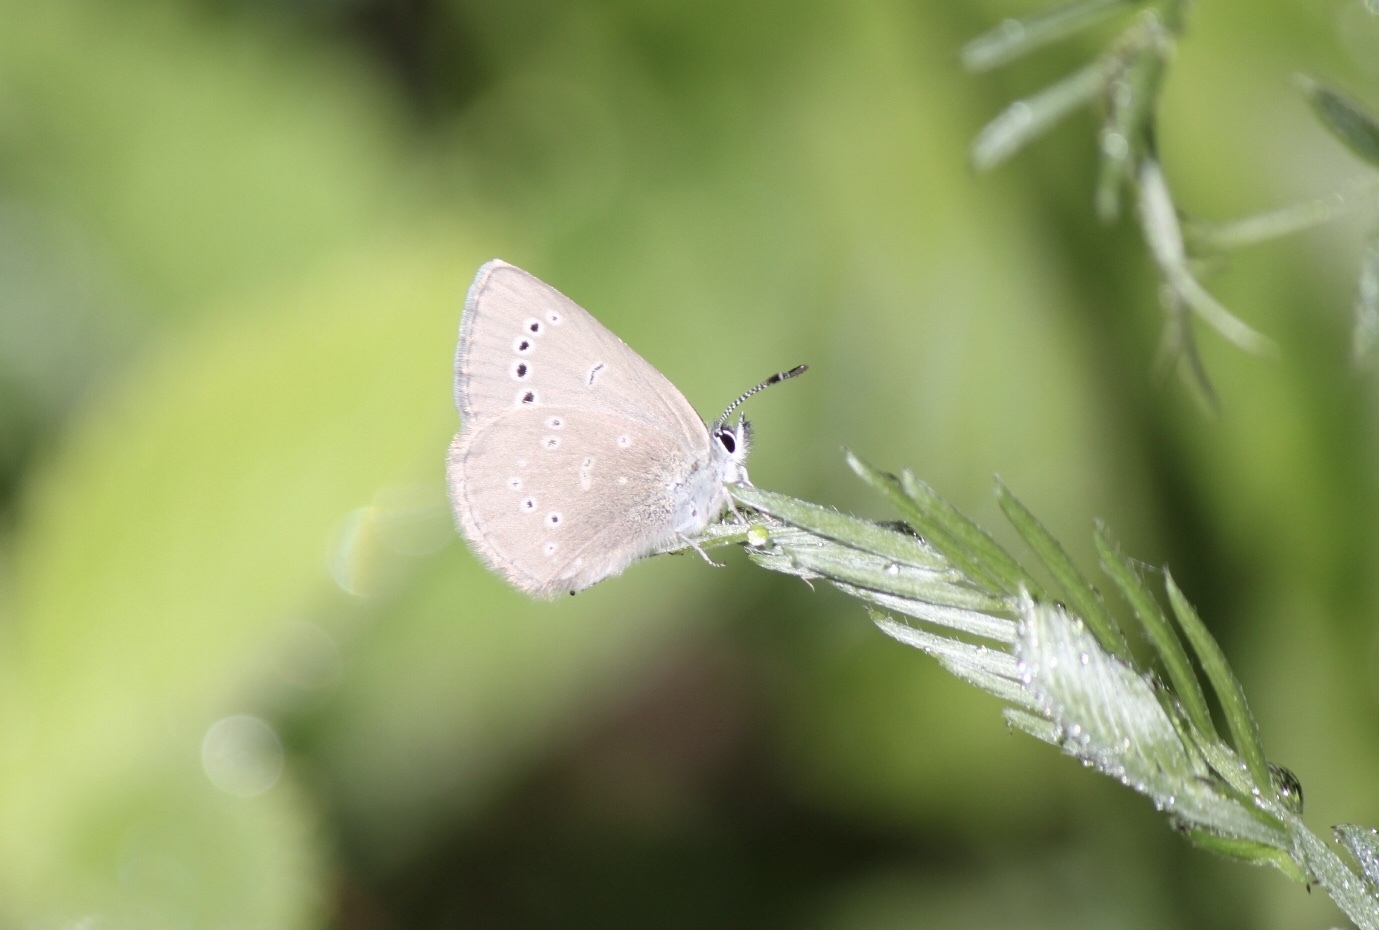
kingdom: Animalia
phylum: Arthropoda
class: Insecta
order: Lepidoptera
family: Lycaenidae
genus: Glaucopsyche
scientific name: Glaucopsyche lygdamus
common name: Silvery blue
